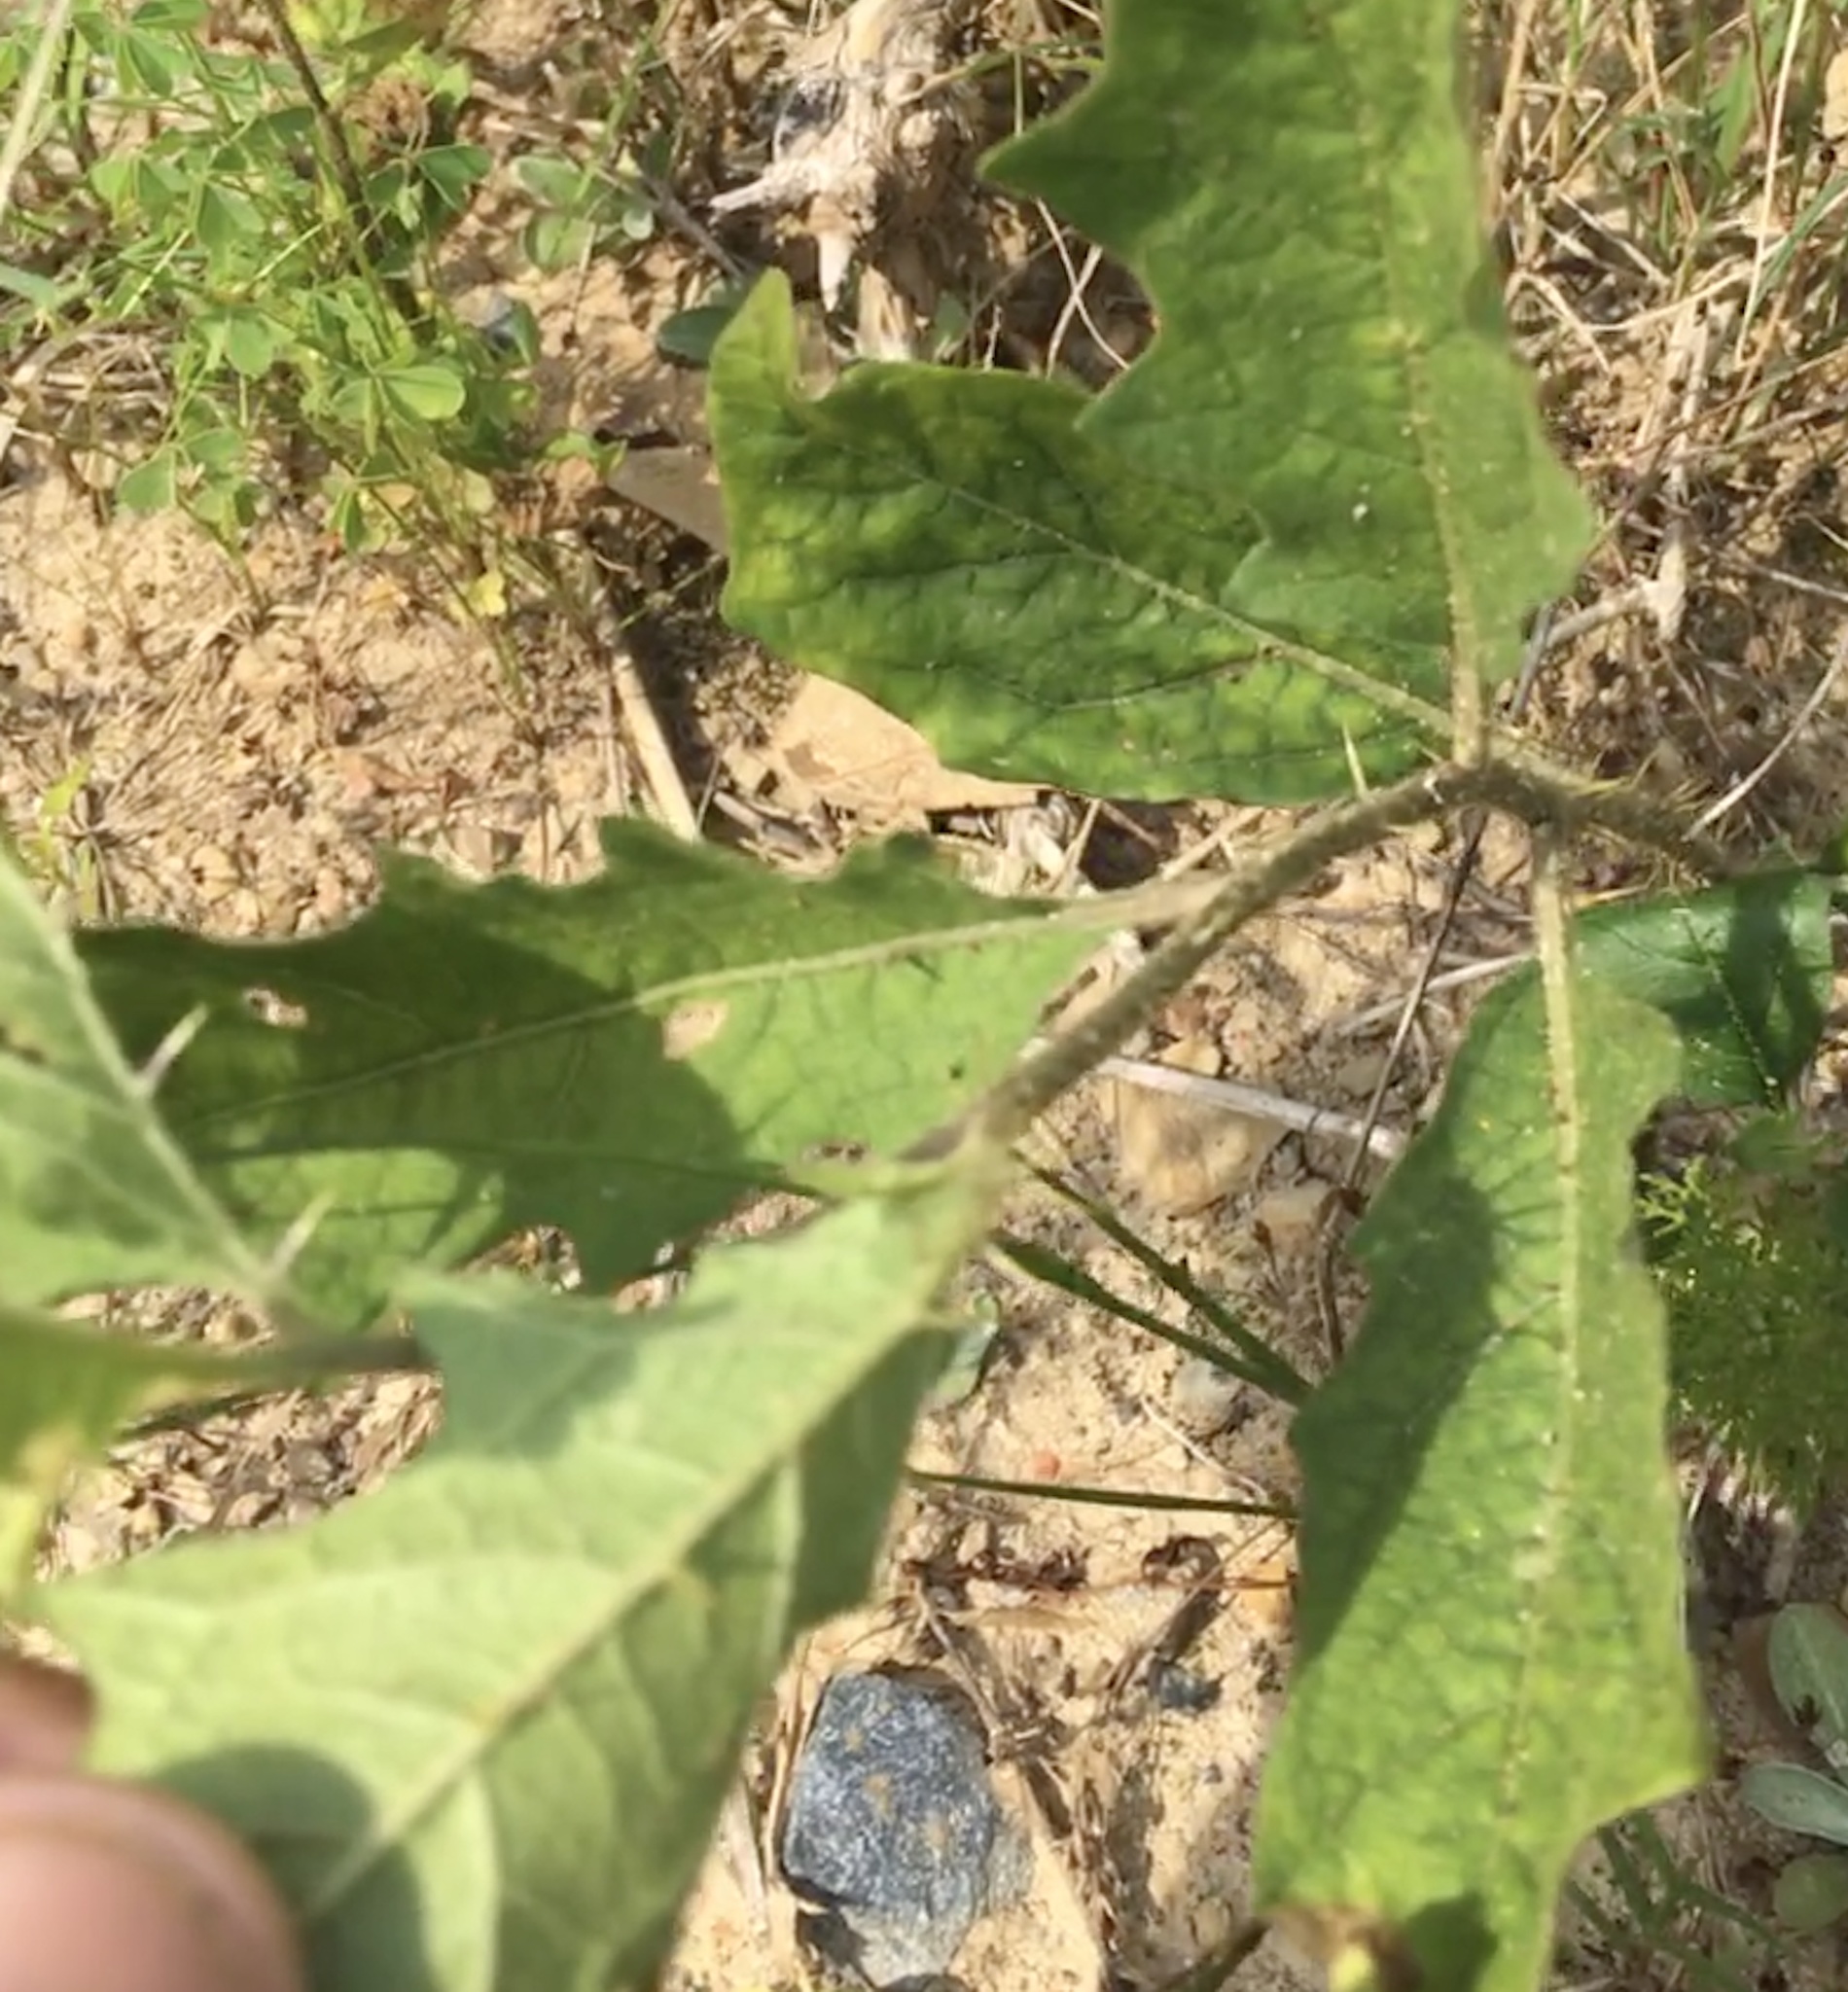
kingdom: Plantae
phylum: Tracheophyta
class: Magnoliopsida
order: Solanales
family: Solanaceae
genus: Solanum
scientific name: Solanum carolinense
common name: Horse-nettle
